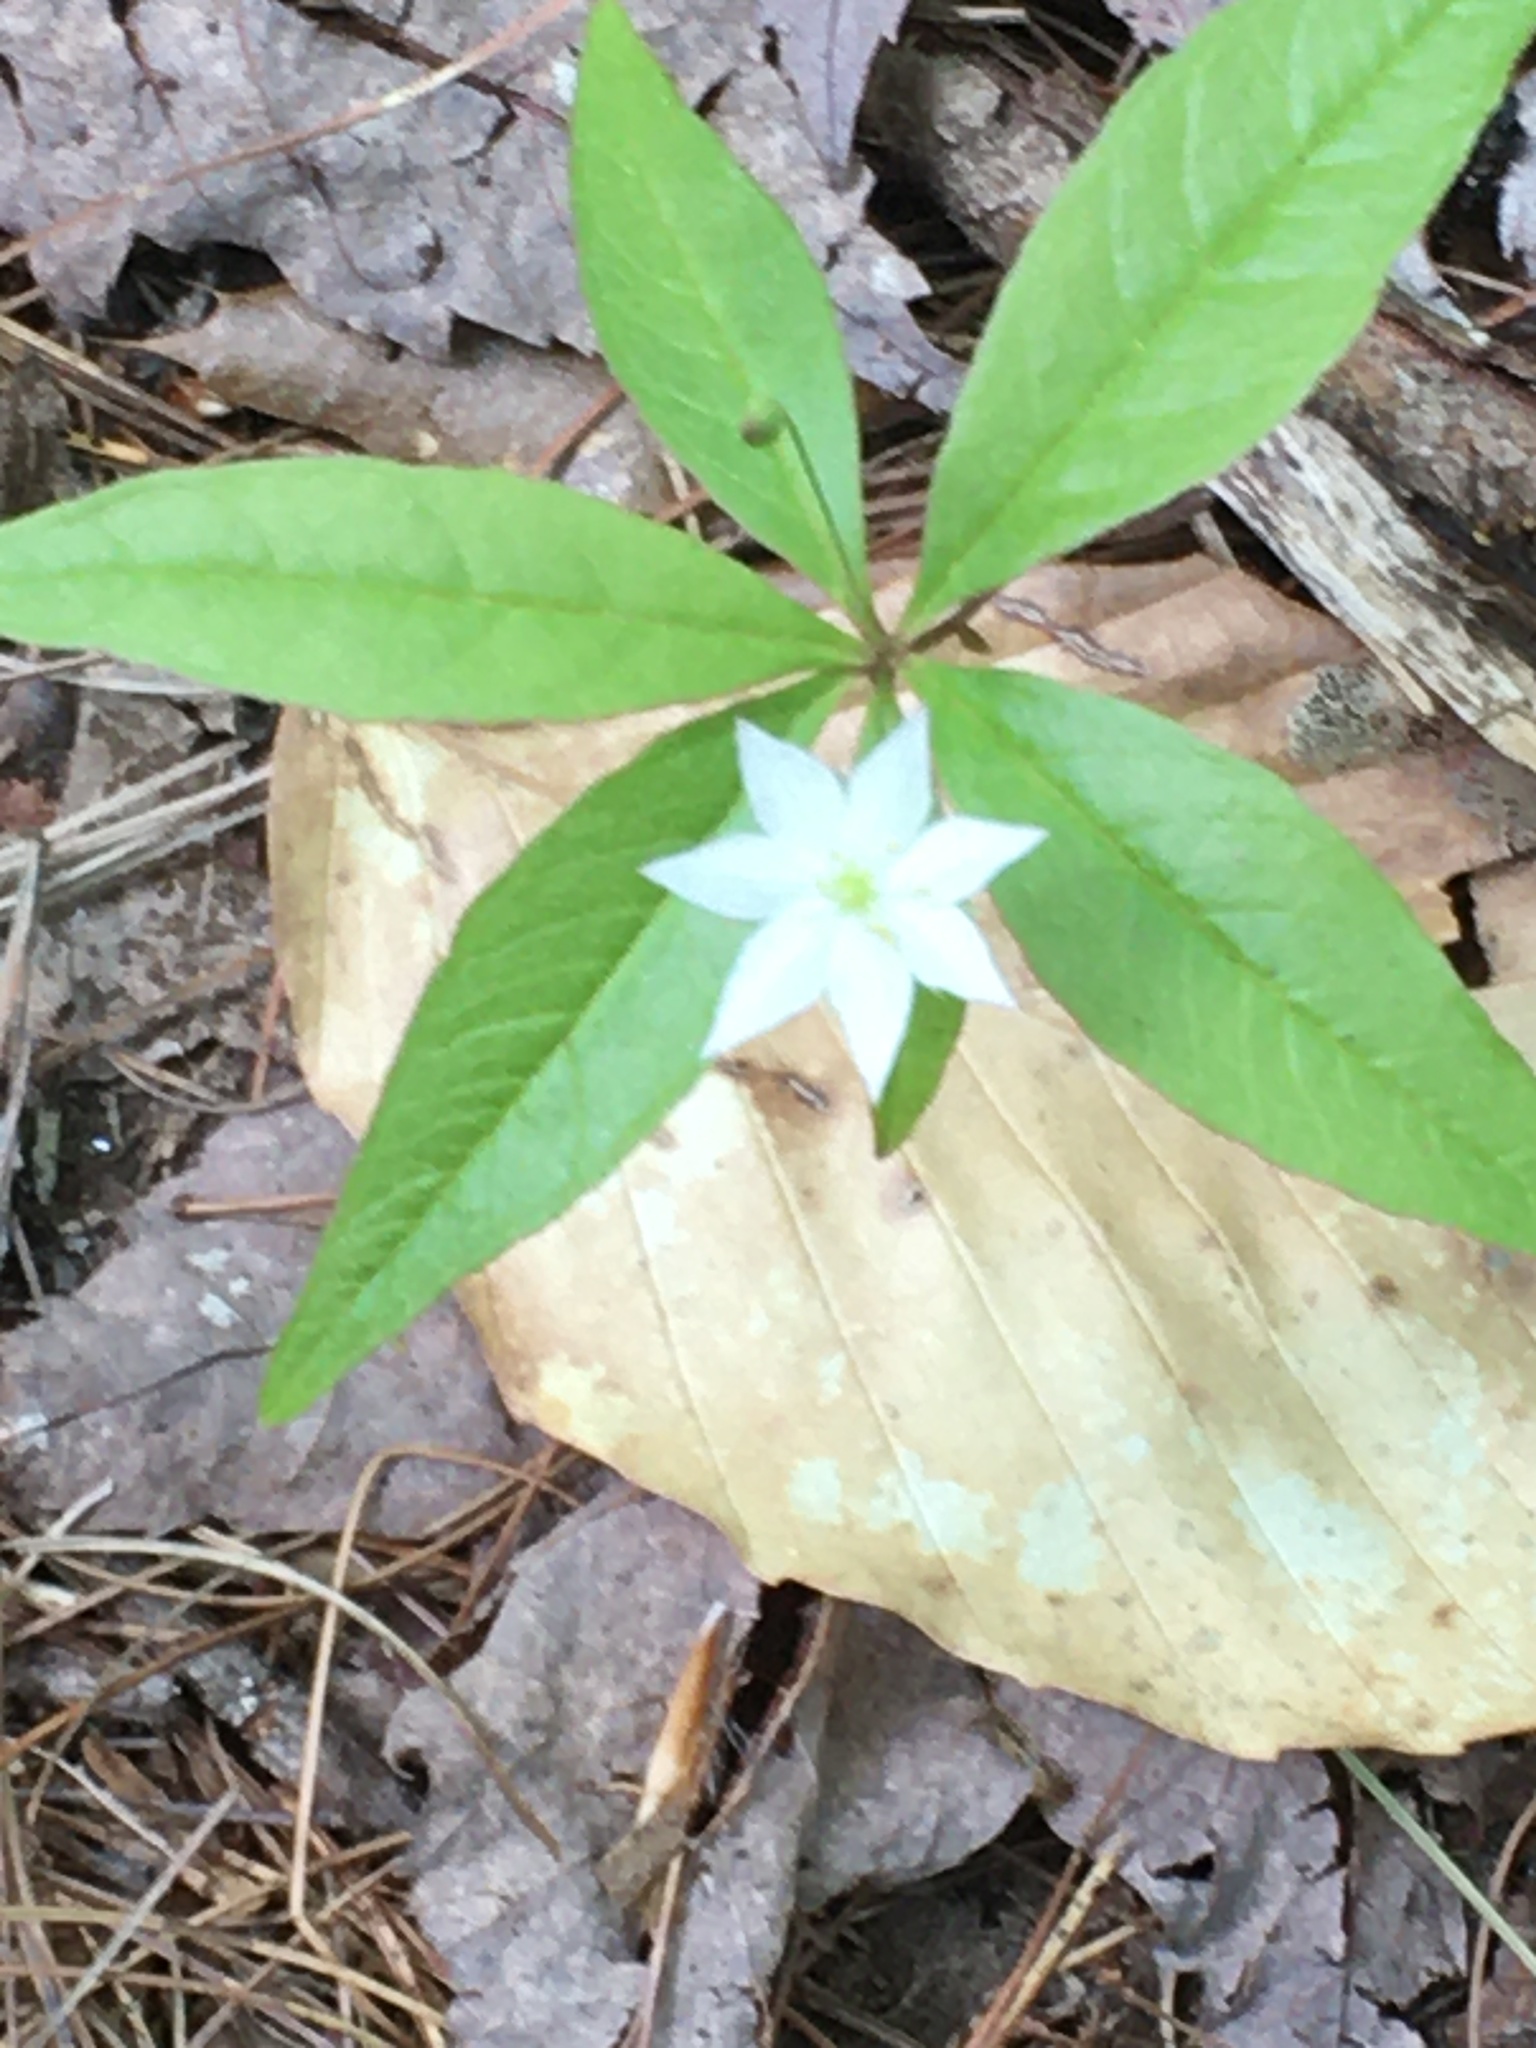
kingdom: Plantae
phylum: Tracheophyta
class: Magnoliopsida
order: Ericales
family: Primulaceae
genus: Lysimachia
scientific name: Lysimachia borealis
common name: American starflower
